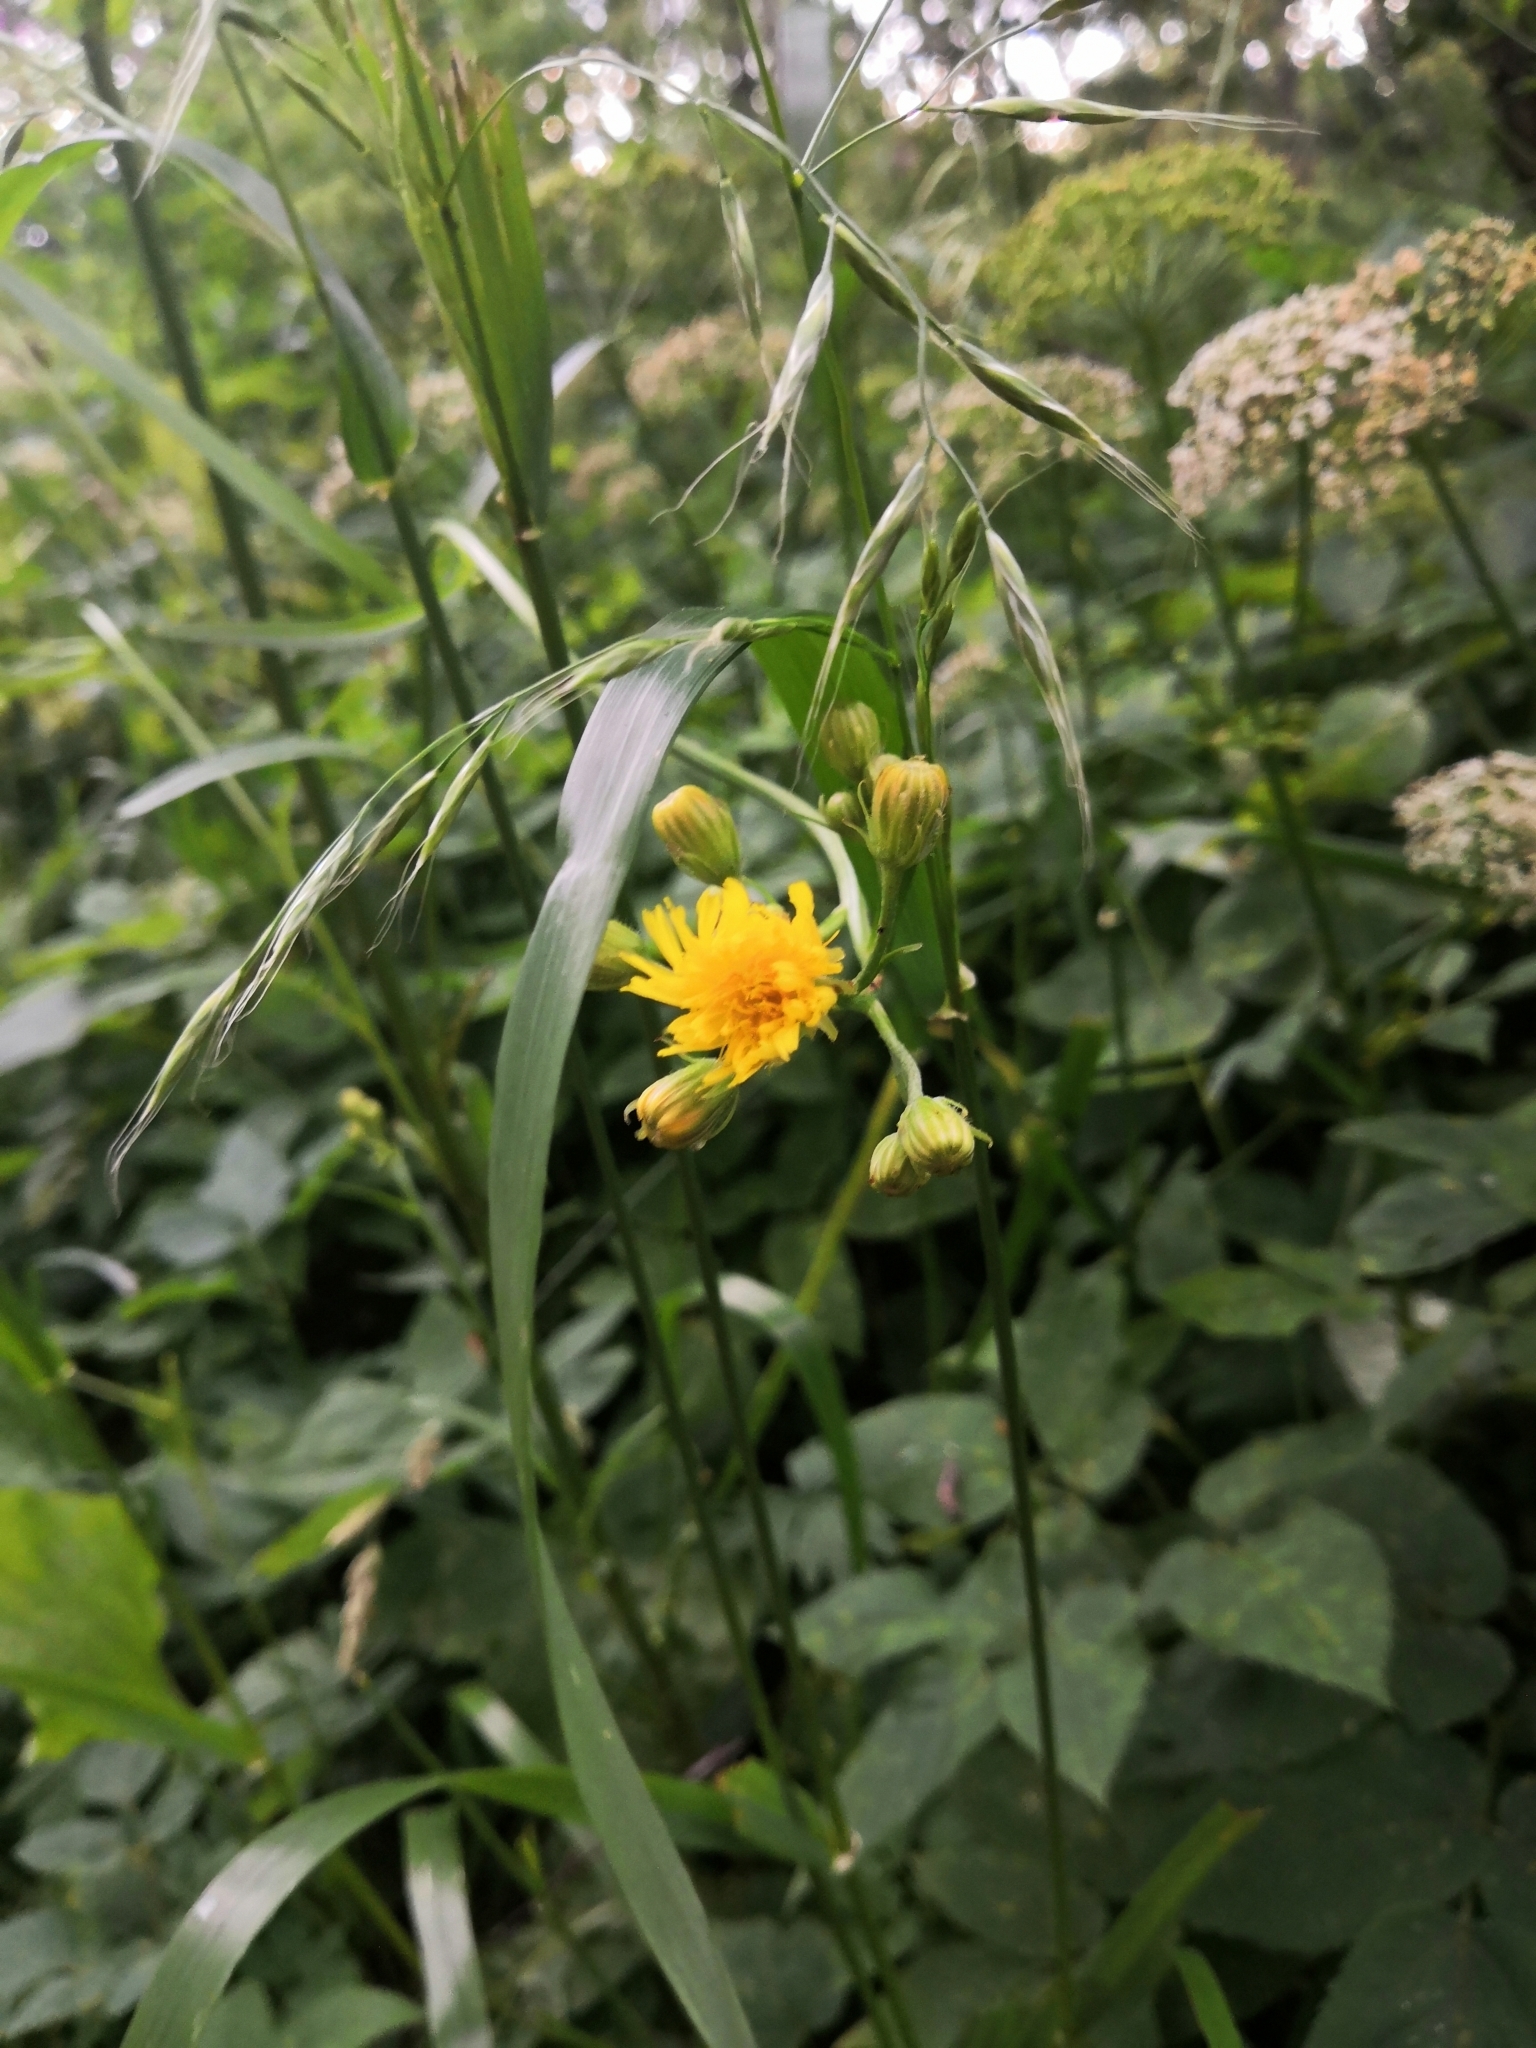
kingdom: Plantae
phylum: Tracheophyta
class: Magnoliopsida
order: Asterales
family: Asteraceae
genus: Crepis
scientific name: Crepis biennis
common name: Rough hawk's-beard
